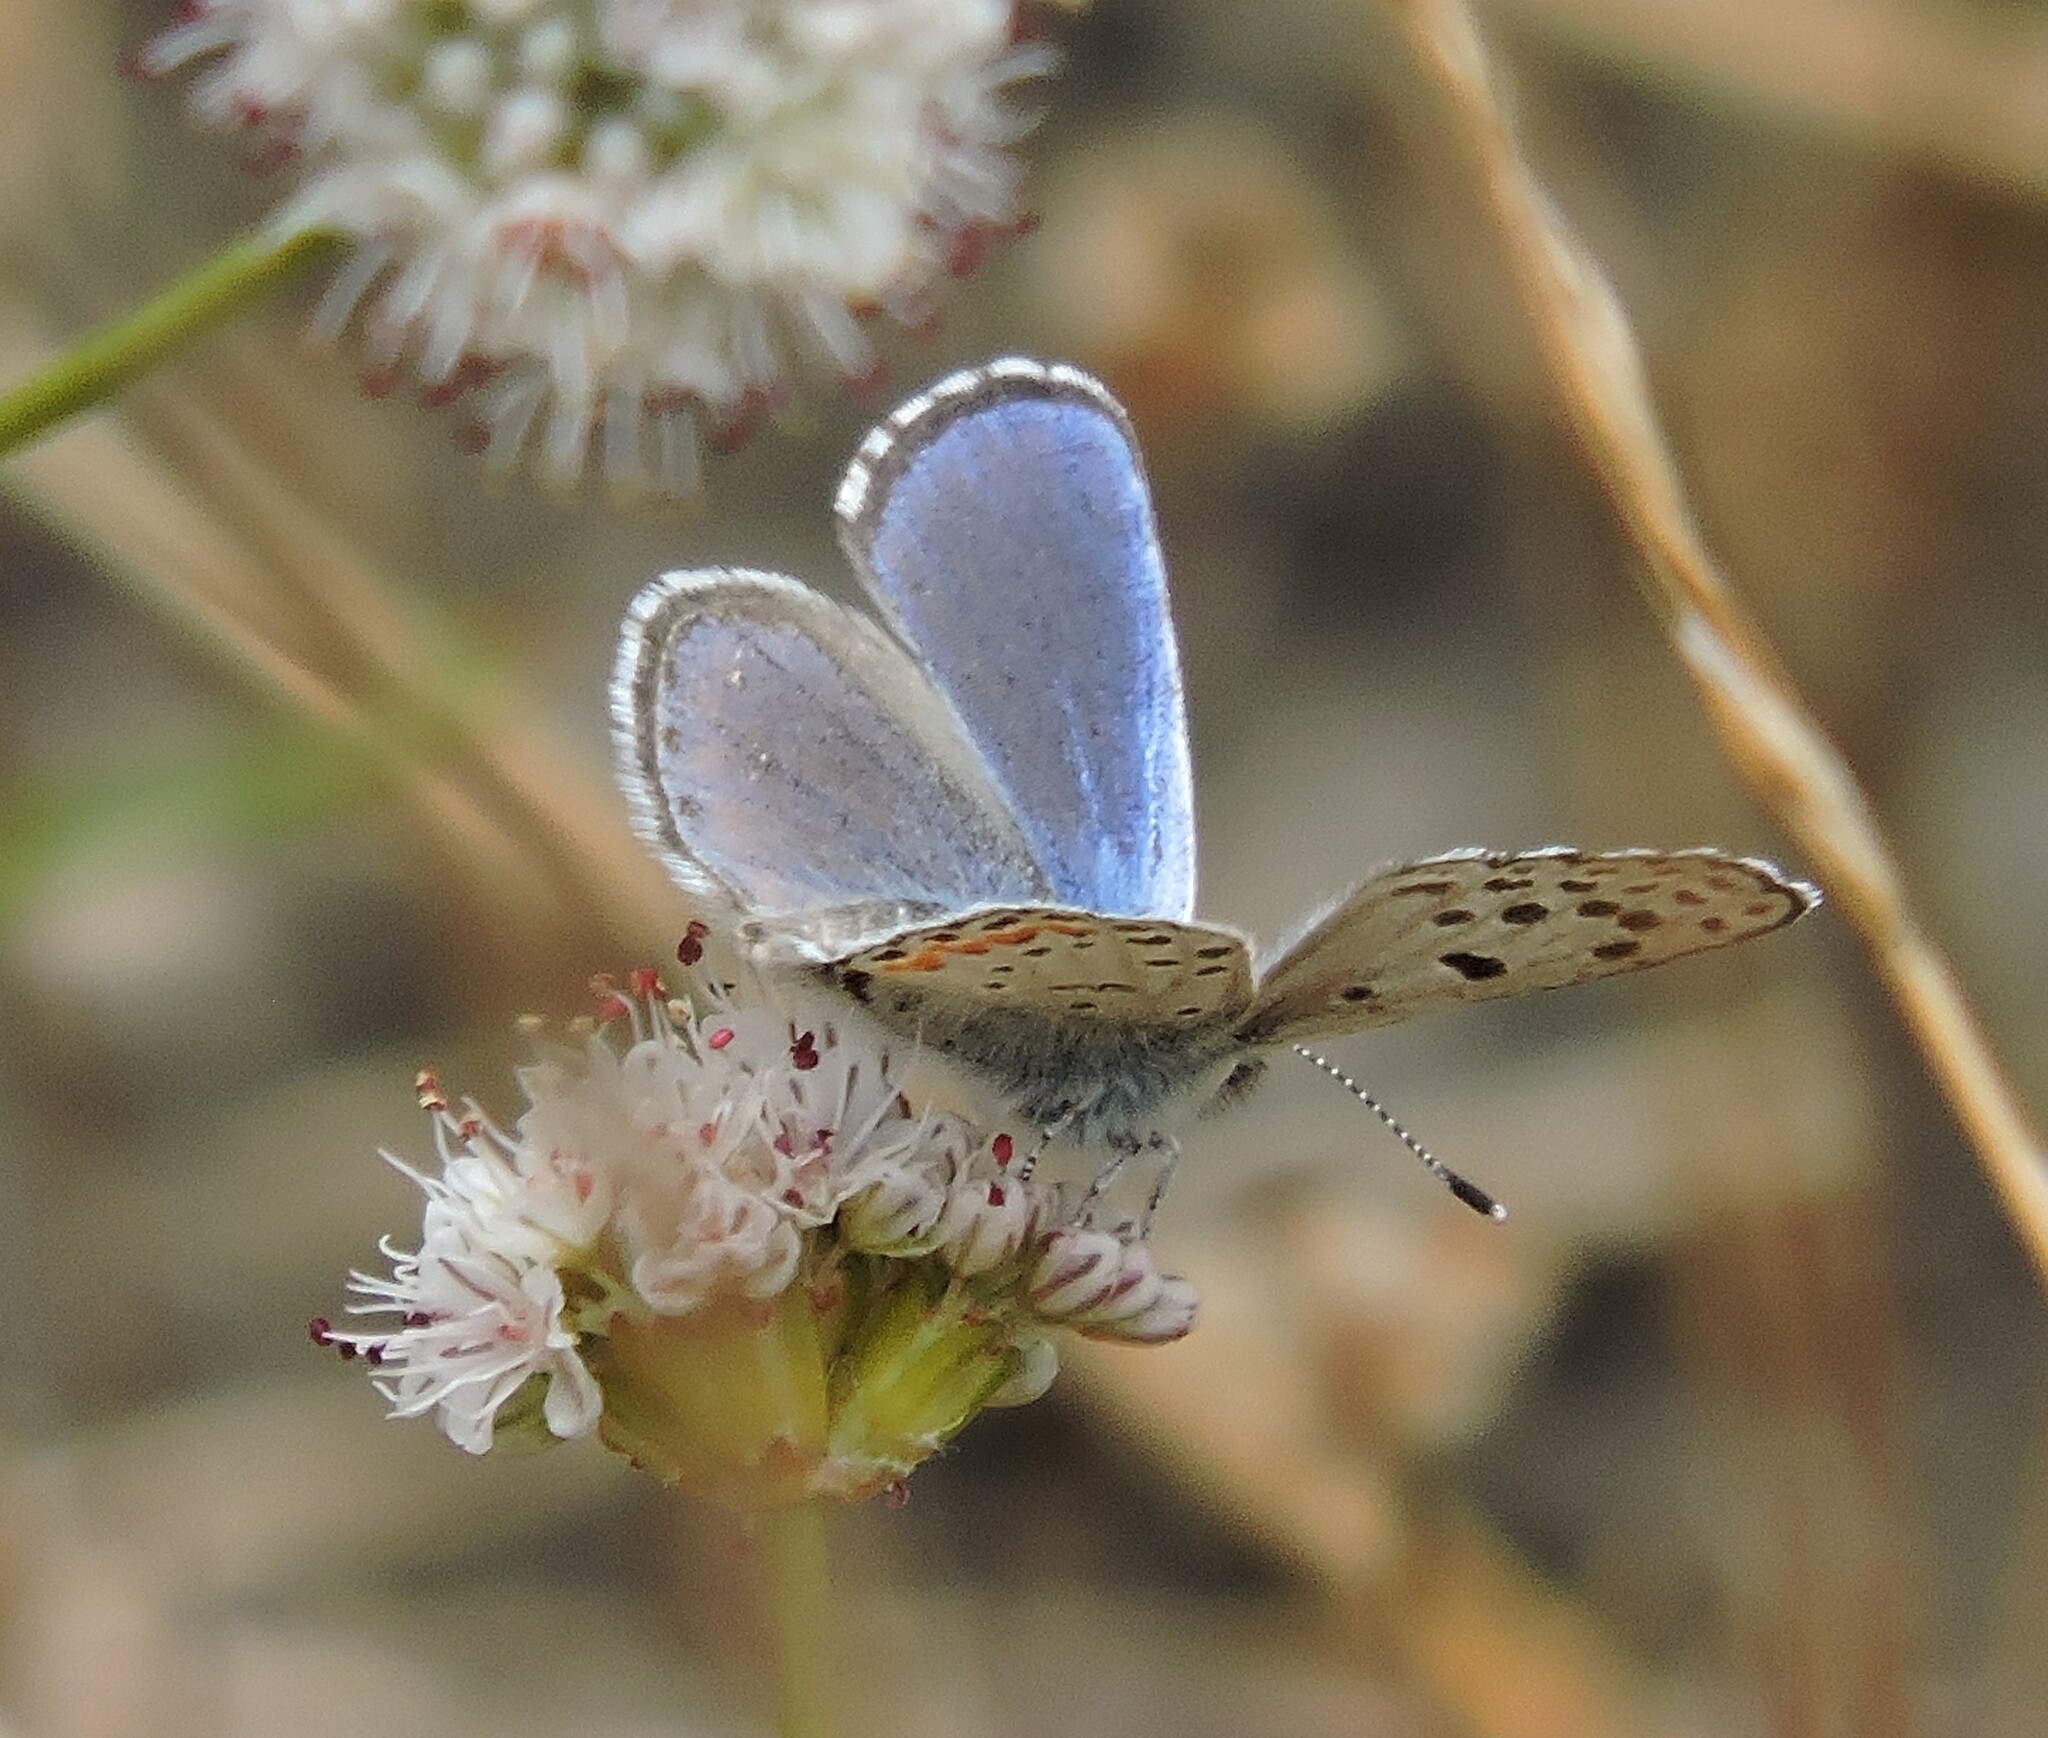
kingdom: Animalia
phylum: Arthropoda
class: Insecta
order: Lepidoptera
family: Lycaenidae
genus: Euphilotes
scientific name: Euphilotes enoptes
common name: Dotted blue
